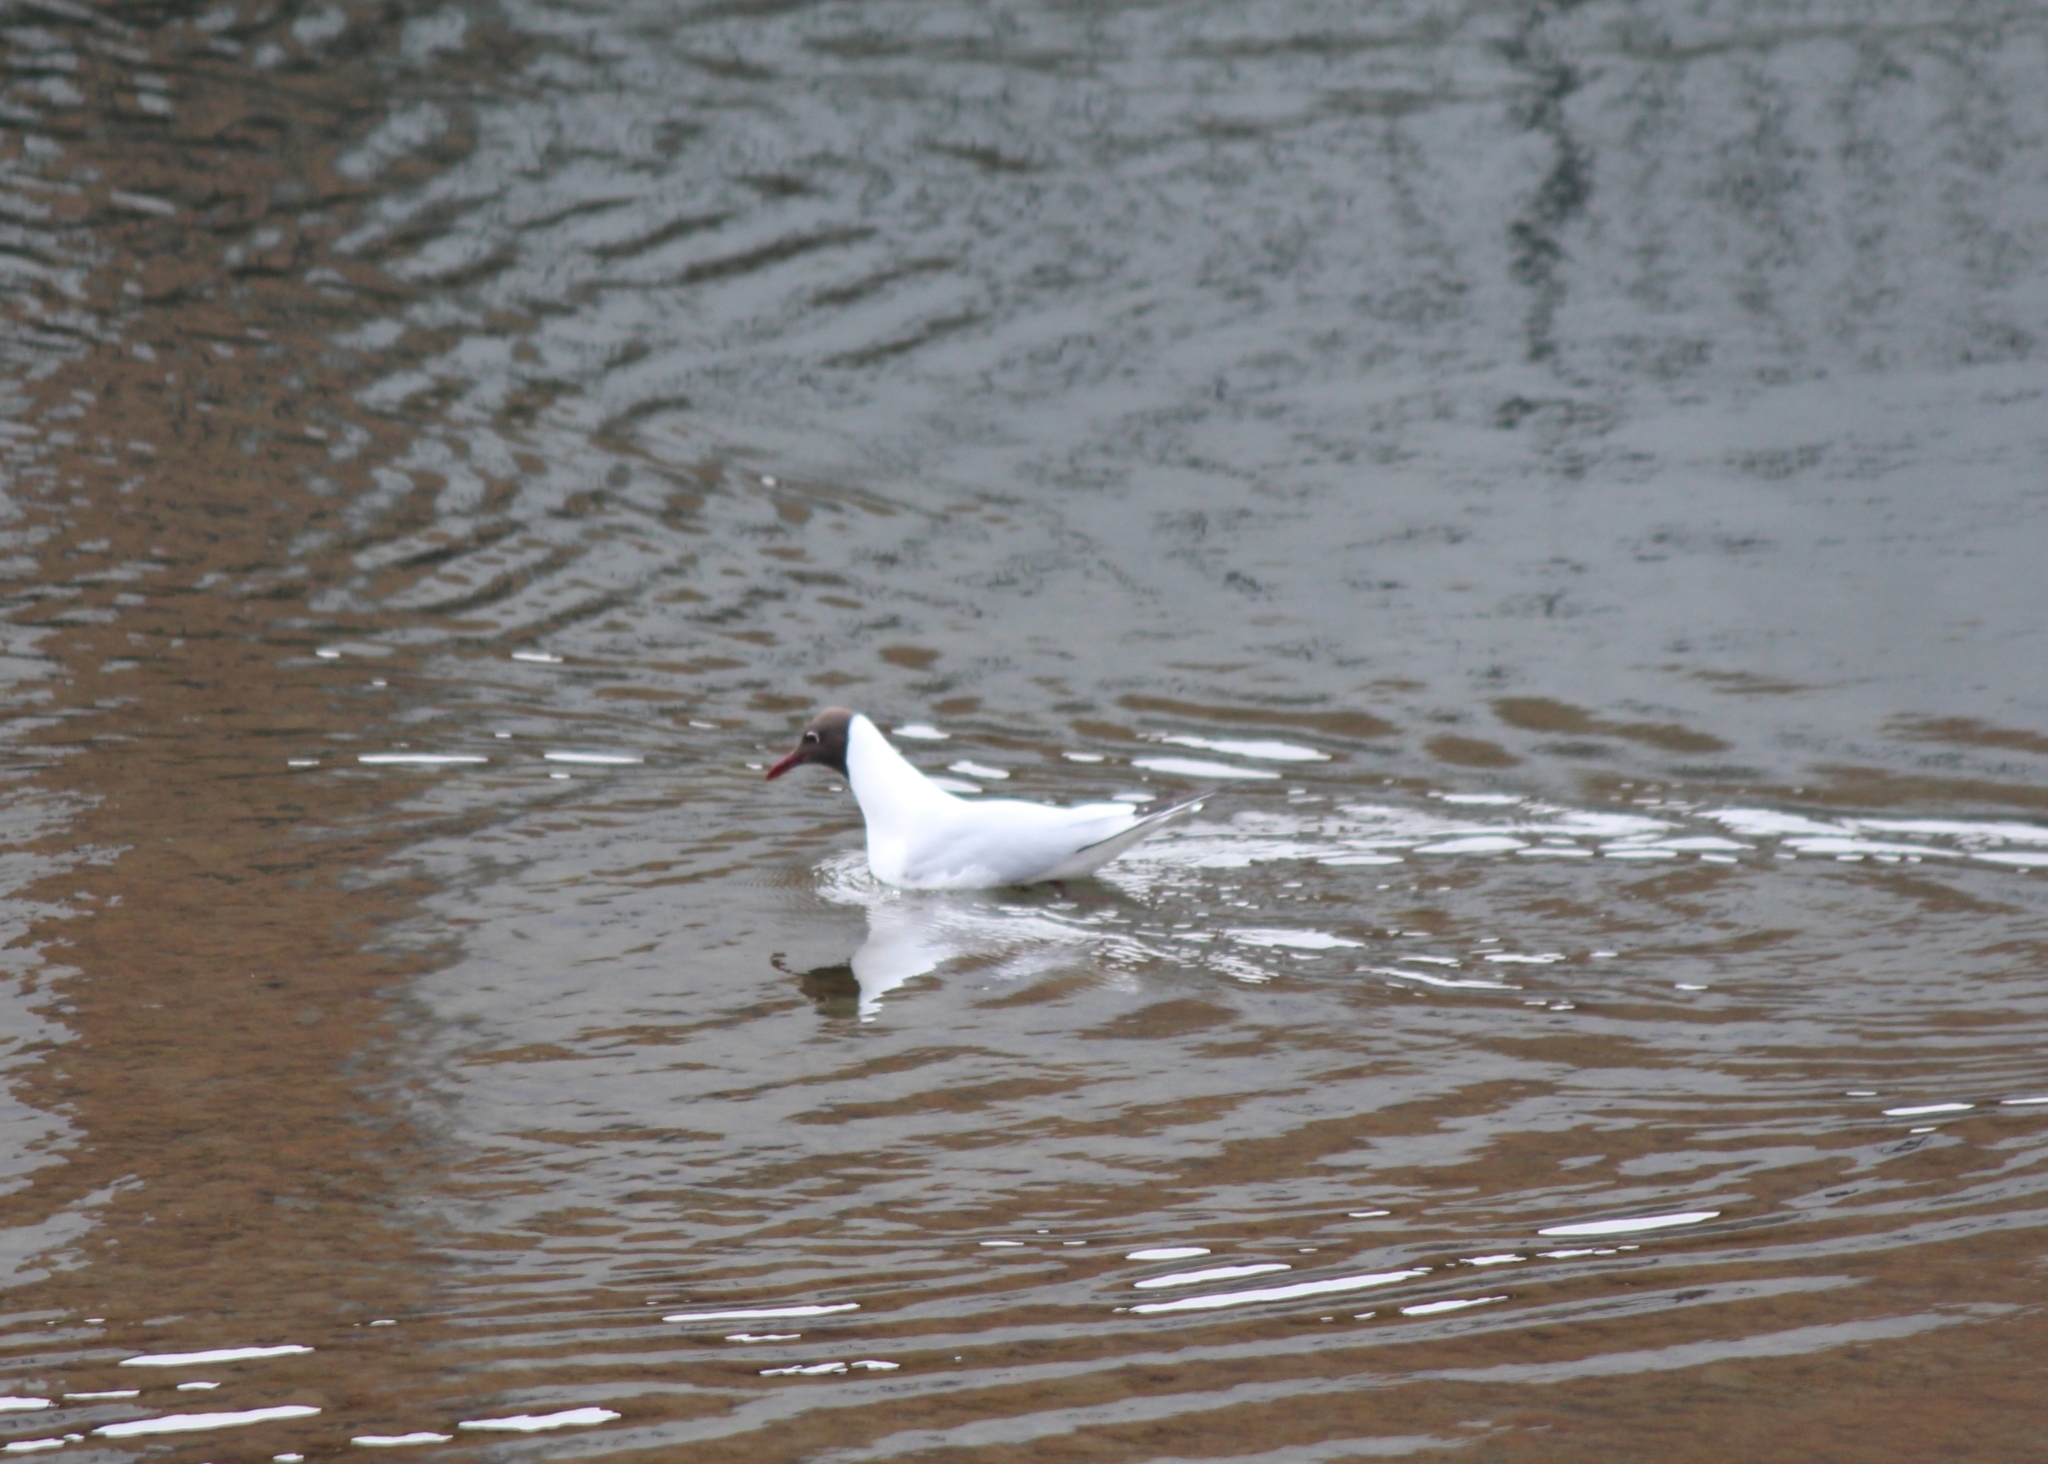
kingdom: Animalia
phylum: Chordata
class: Aves
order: Charadriiformes
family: Laridae
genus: Chroicocephalus
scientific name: Chroicocephalus ridibundus
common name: Black-headed gull
